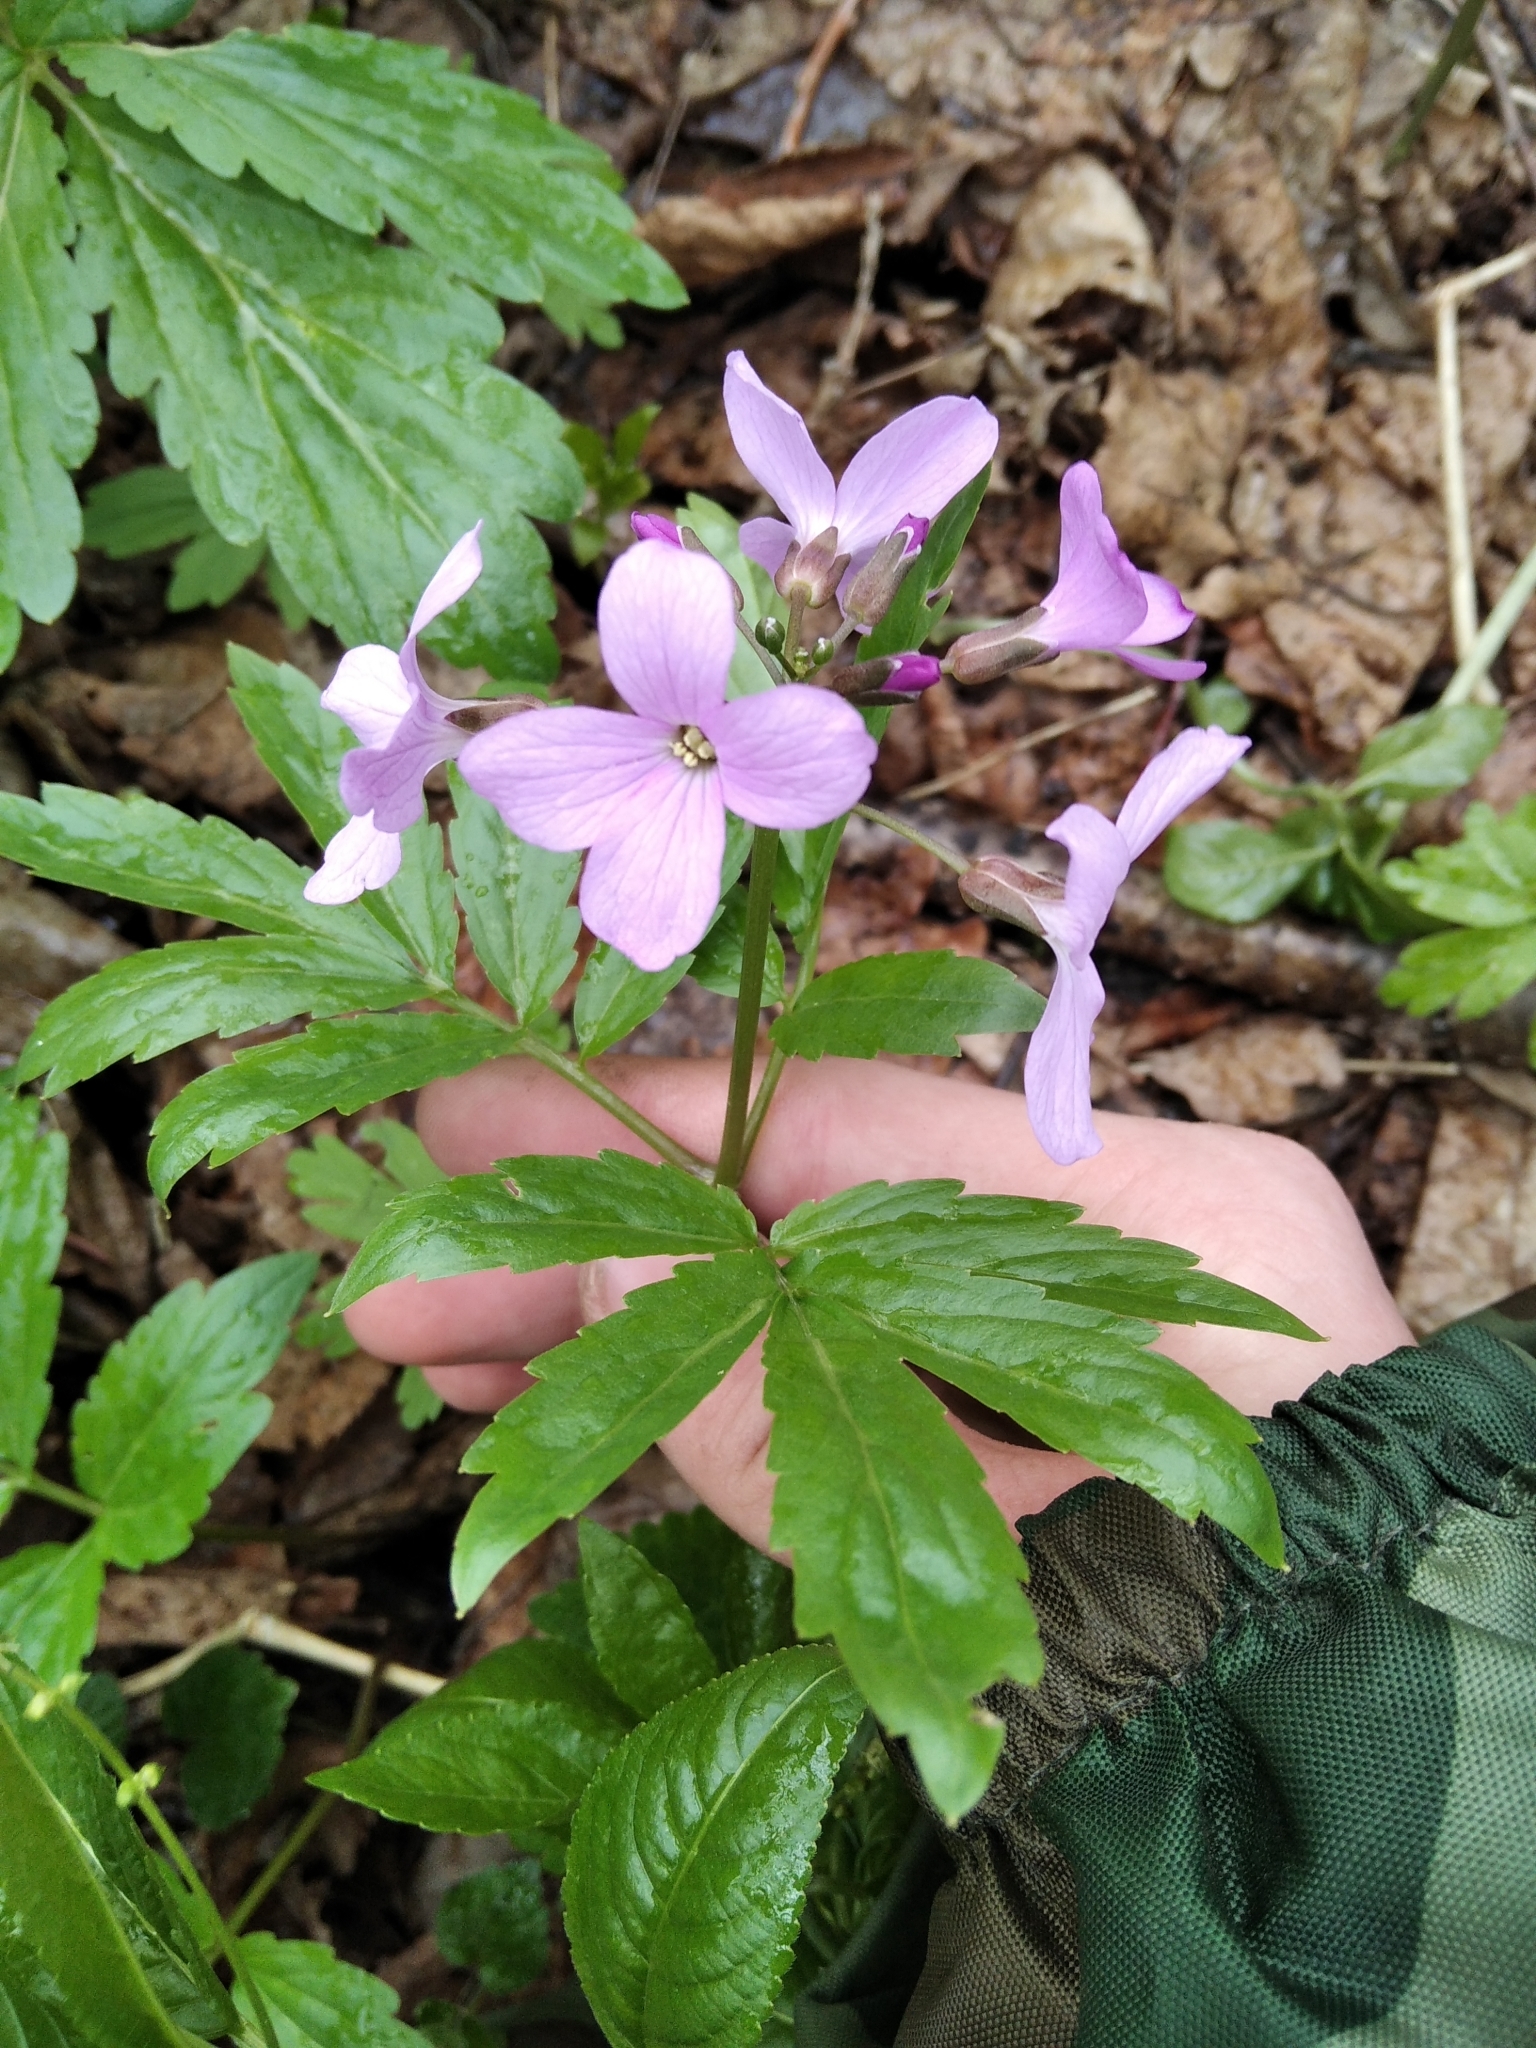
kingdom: Plantae
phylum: Tracheophyta
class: Magnoliopsida
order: Brassicales
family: Brassicaceae
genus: Cardamine
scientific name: Cardamine quinquefolia
